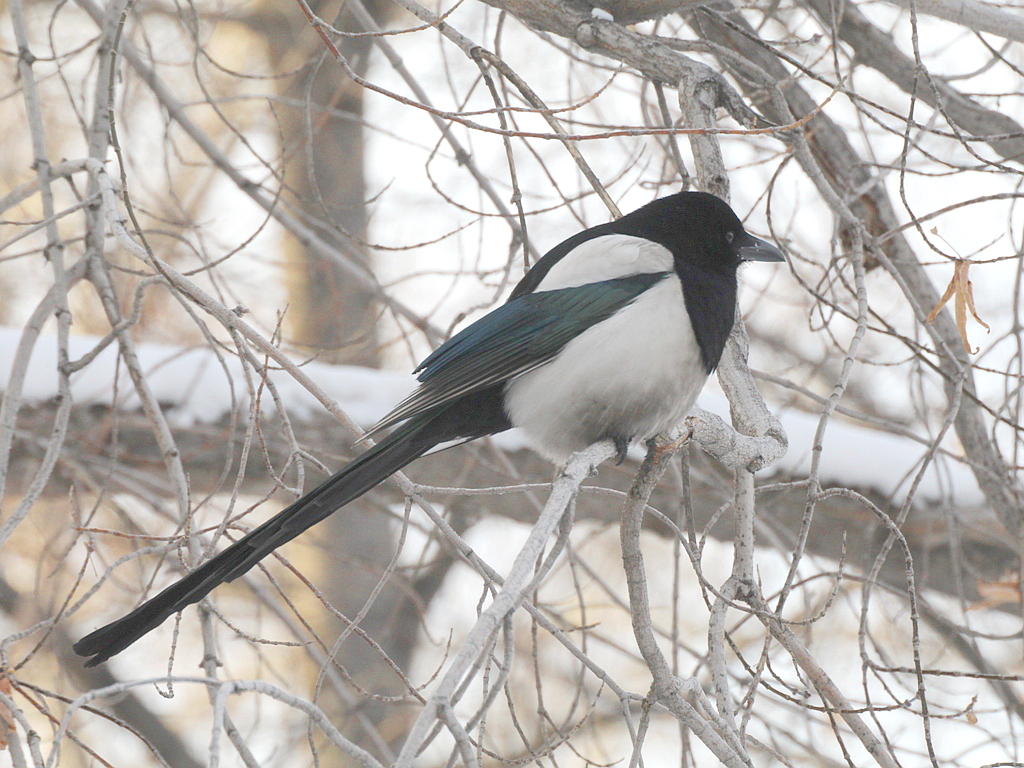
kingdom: Animalia
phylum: Chordata
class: Aves
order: Passeriformes
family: Corvidae
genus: Pica
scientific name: Pica pica
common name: Eurasian magpie
